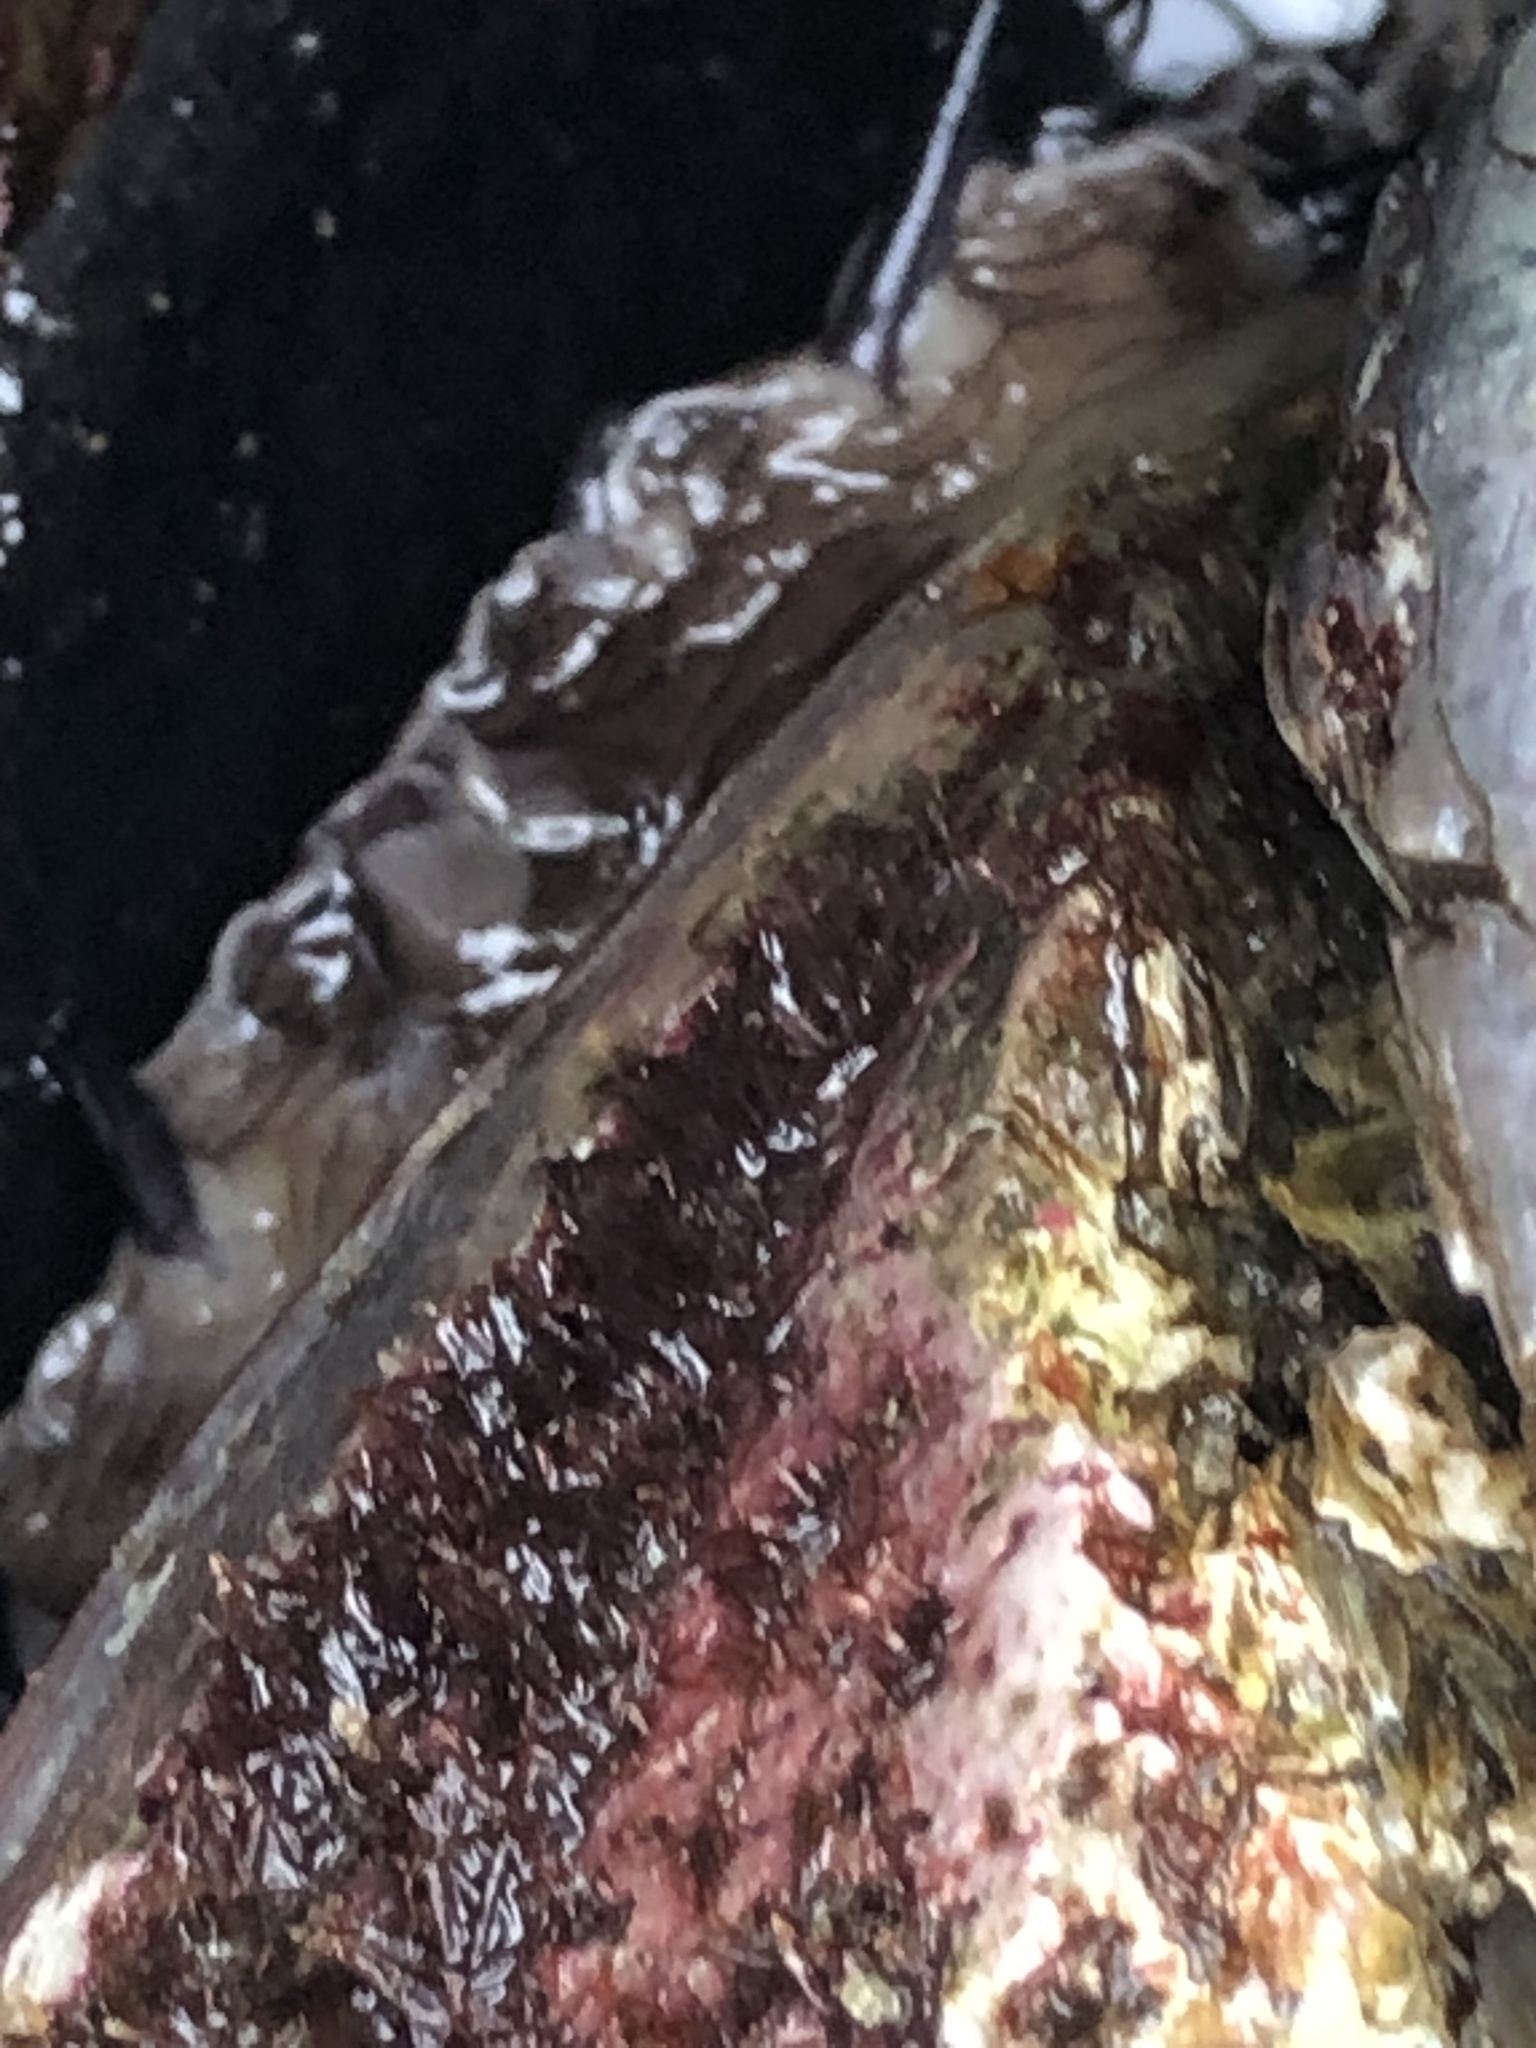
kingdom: Animalia
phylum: Mollusca
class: Gastropoda
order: Lepetellida
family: Haliotidae
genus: Haliotis
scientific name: Haliotis rufescens
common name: Red abalone
